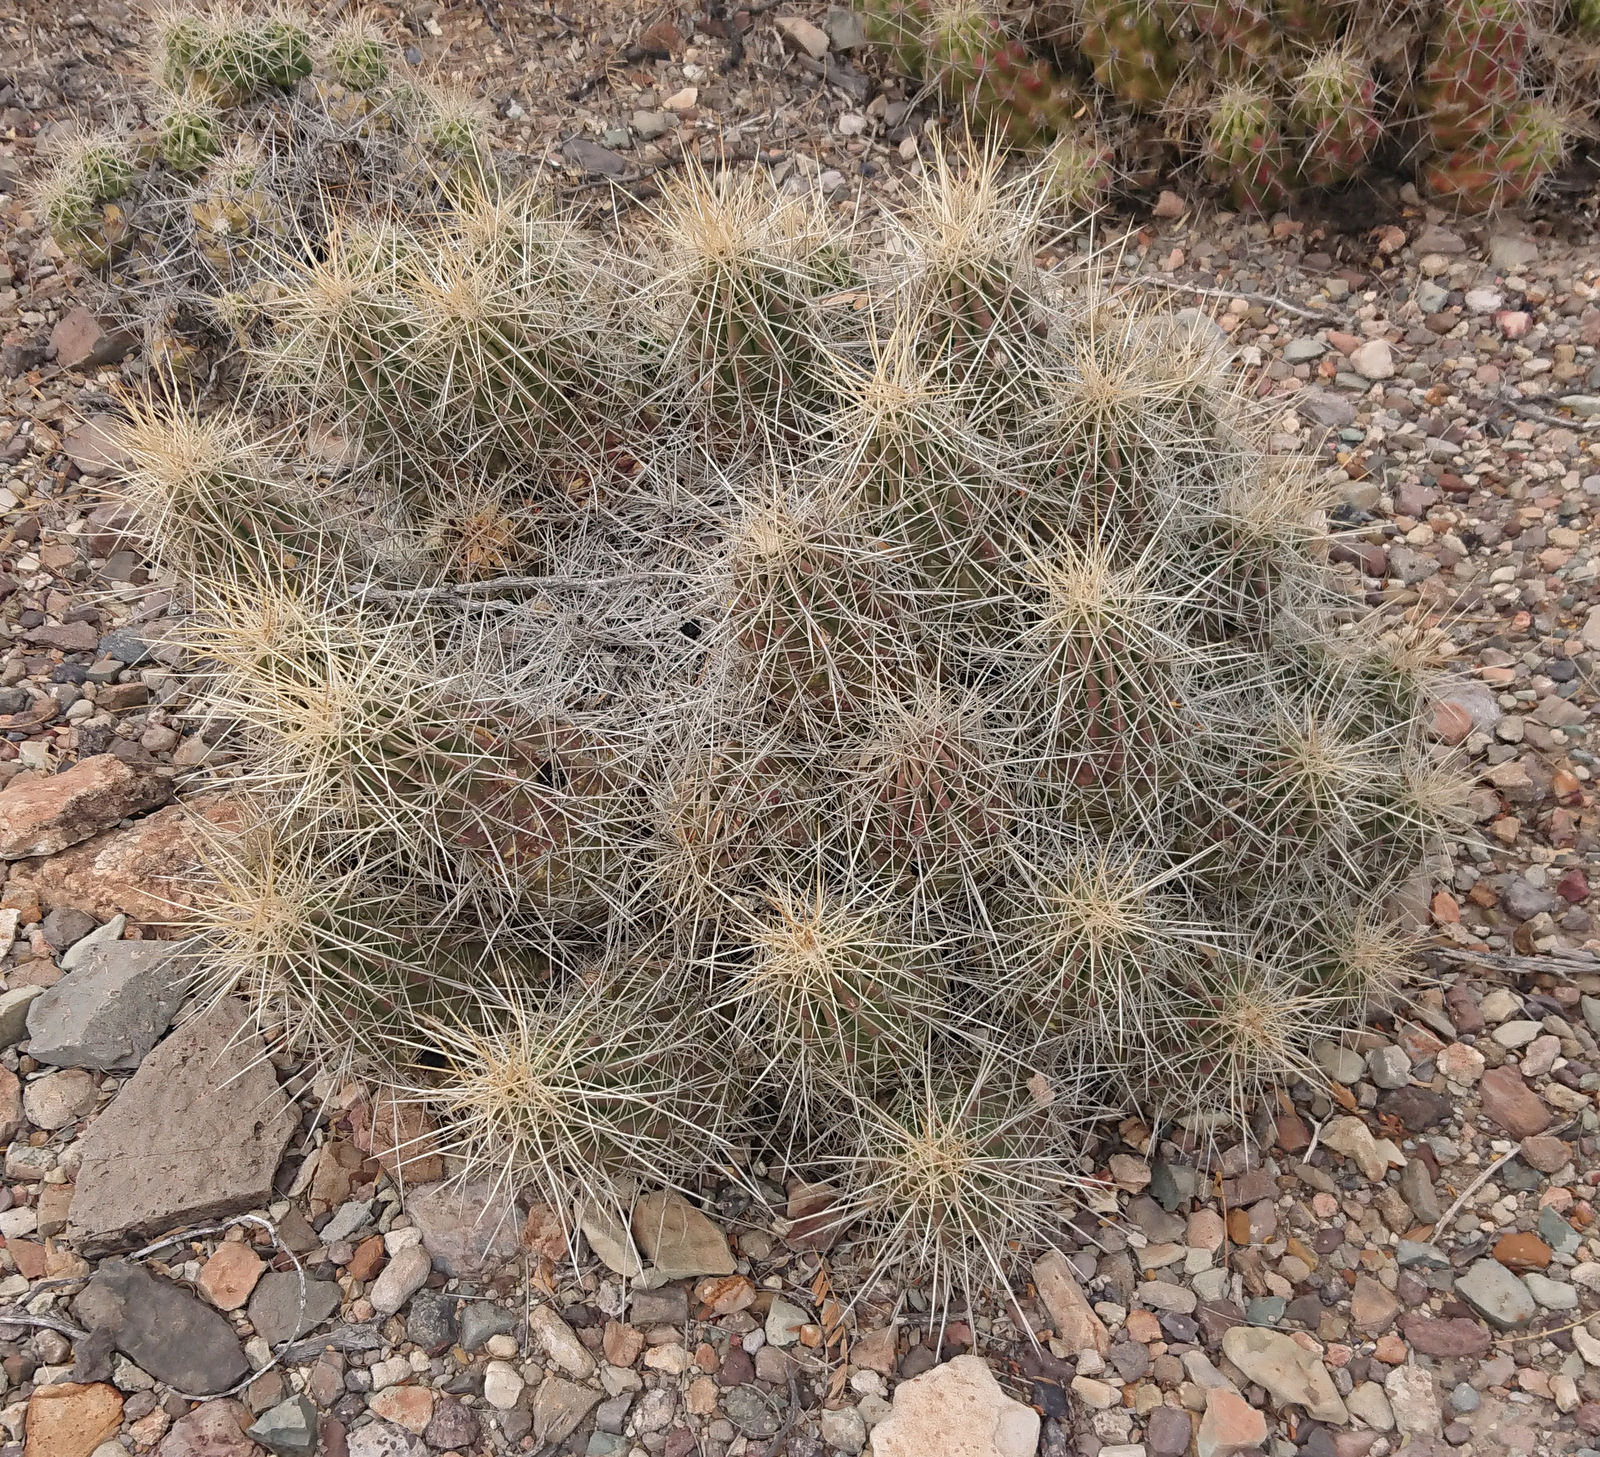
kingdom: Plantae
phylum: Tracheophyta
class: Magnoliopsida
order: Caryophyllales
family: Cactaceae
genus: Echinocereus
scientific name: Echinocereus stramineus
